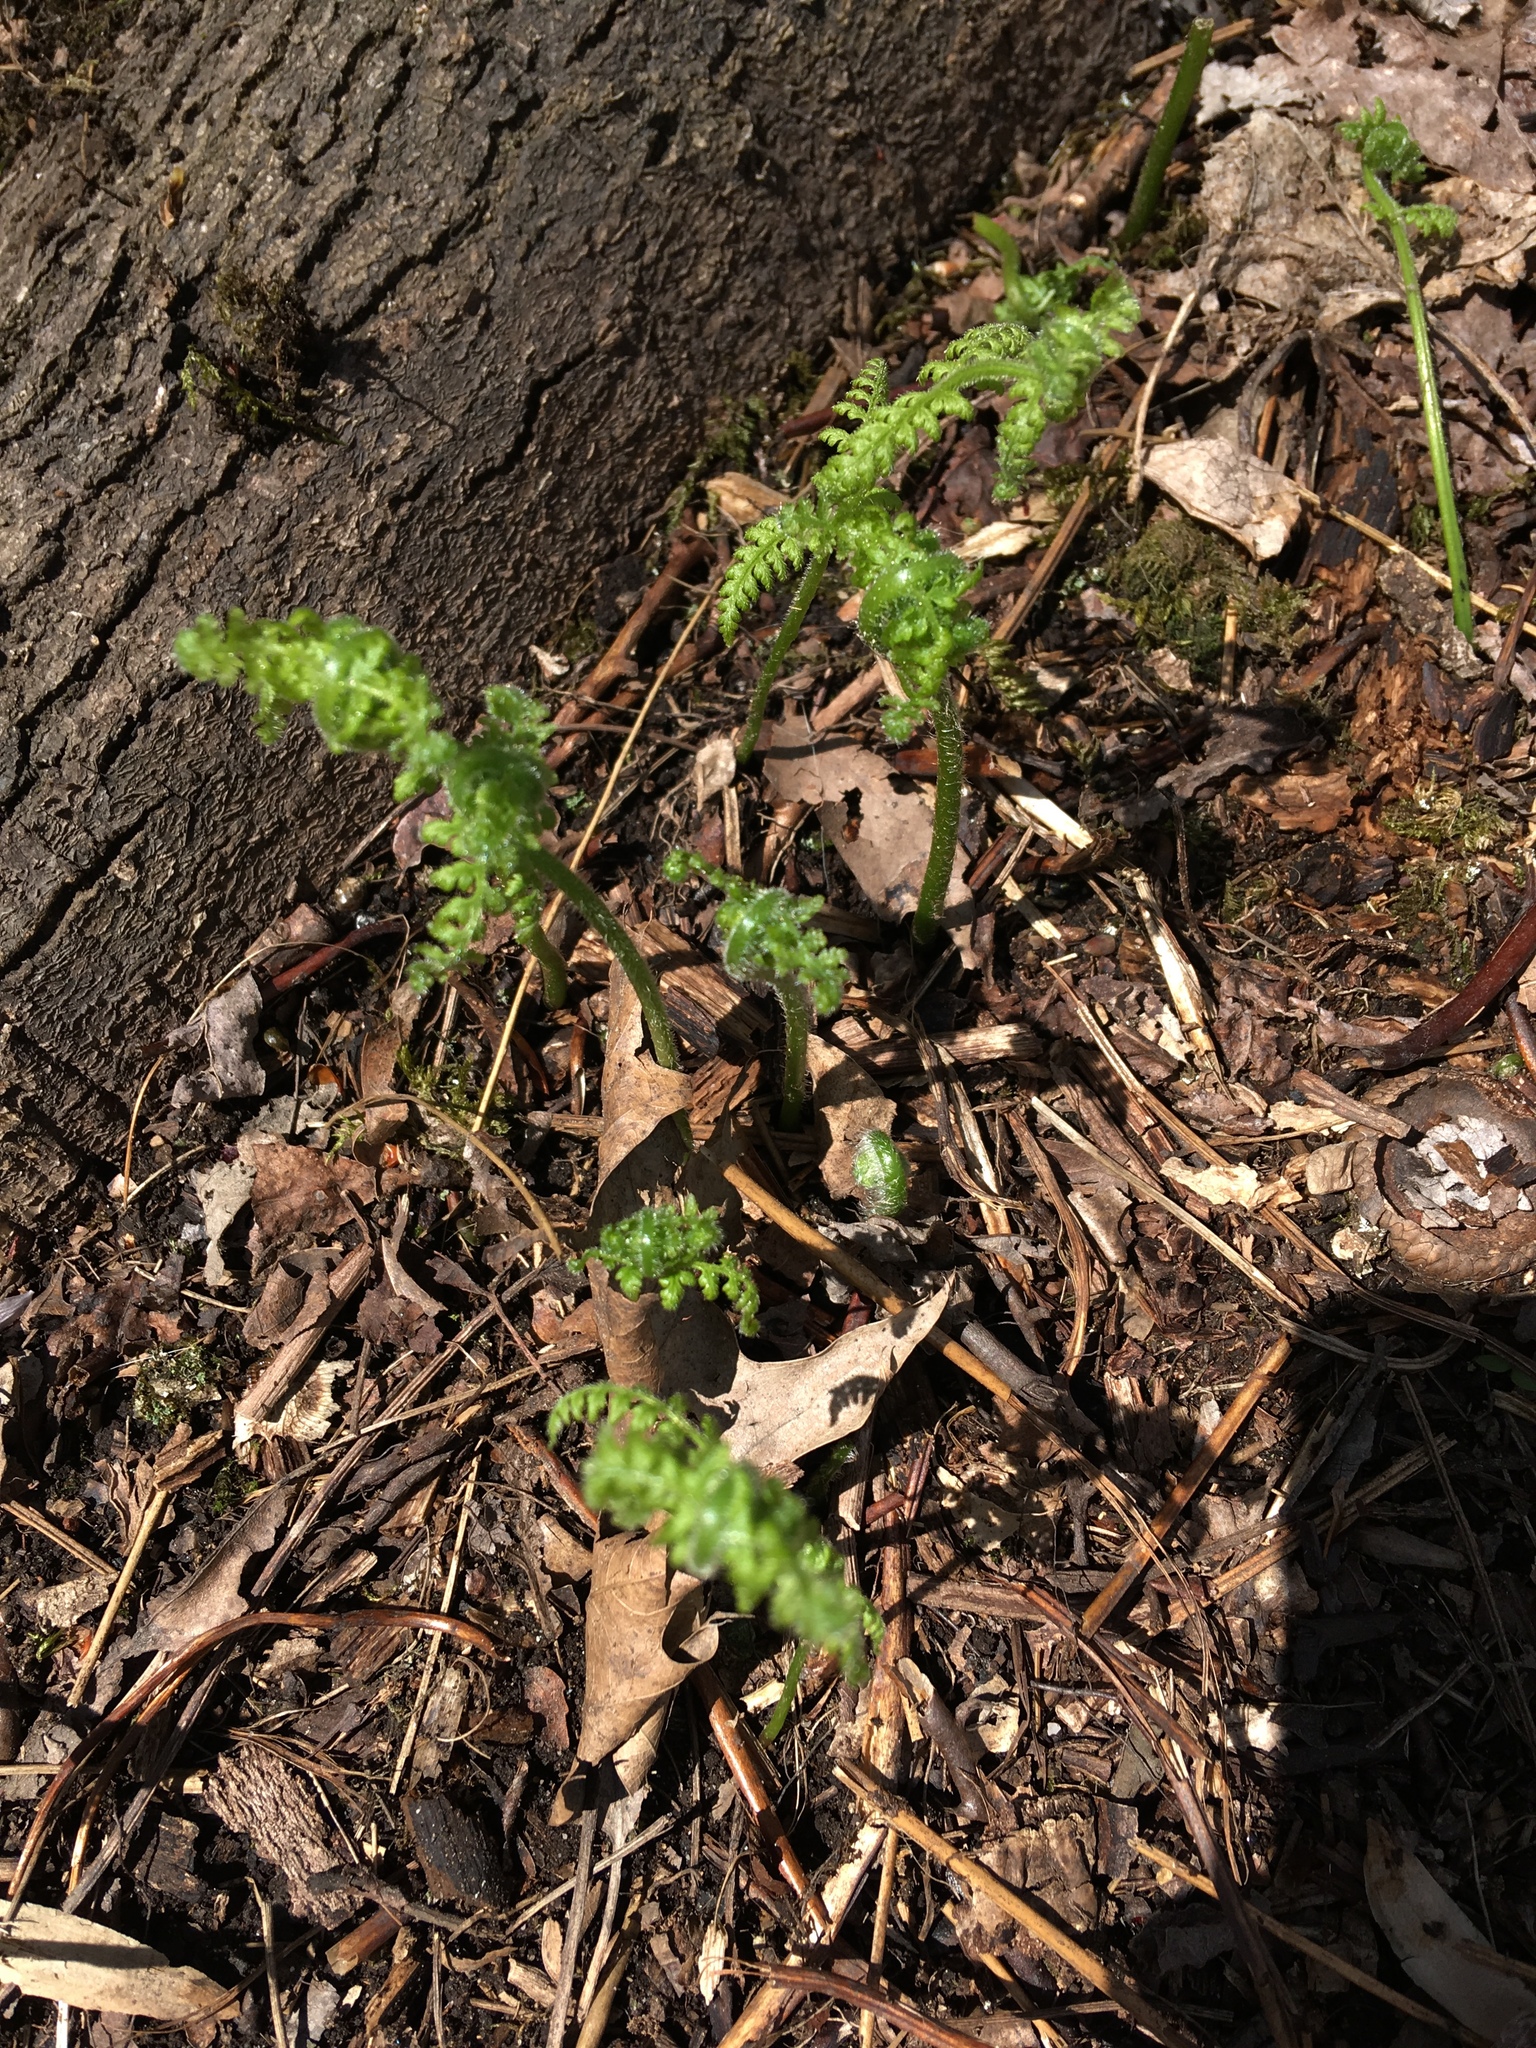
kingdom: Plantae
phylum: Tracheophyta
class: Polypodiopsida
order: Polypodiales
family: Dennstaedtiaceae
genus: Sitobolium
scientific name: Sitobolium punctilobum
